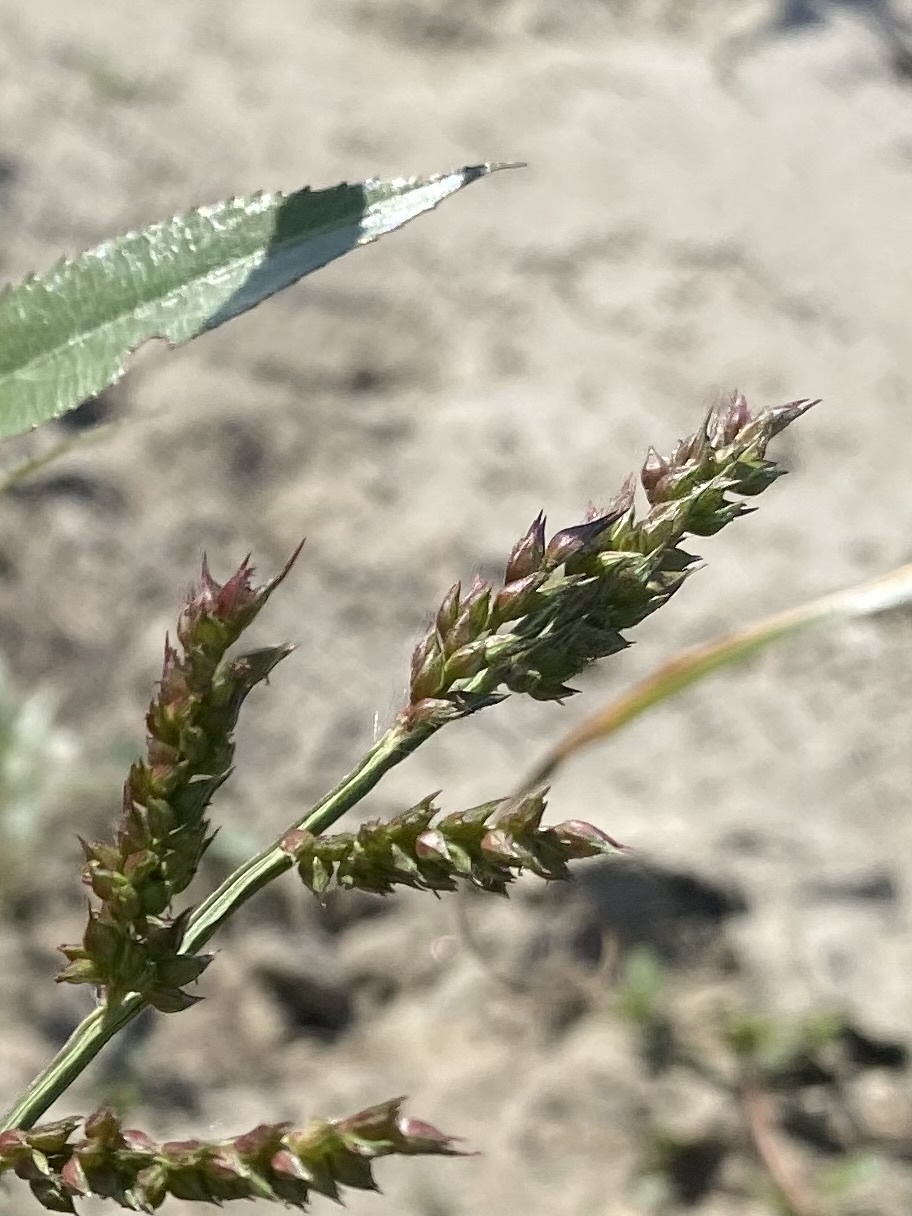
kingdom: Plantae
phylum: Tracheophyta
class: Liliopsida
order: Poales
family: Poaceae
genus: Echinochloa
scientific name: Echinochloa crus-galli
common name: Cockspur
